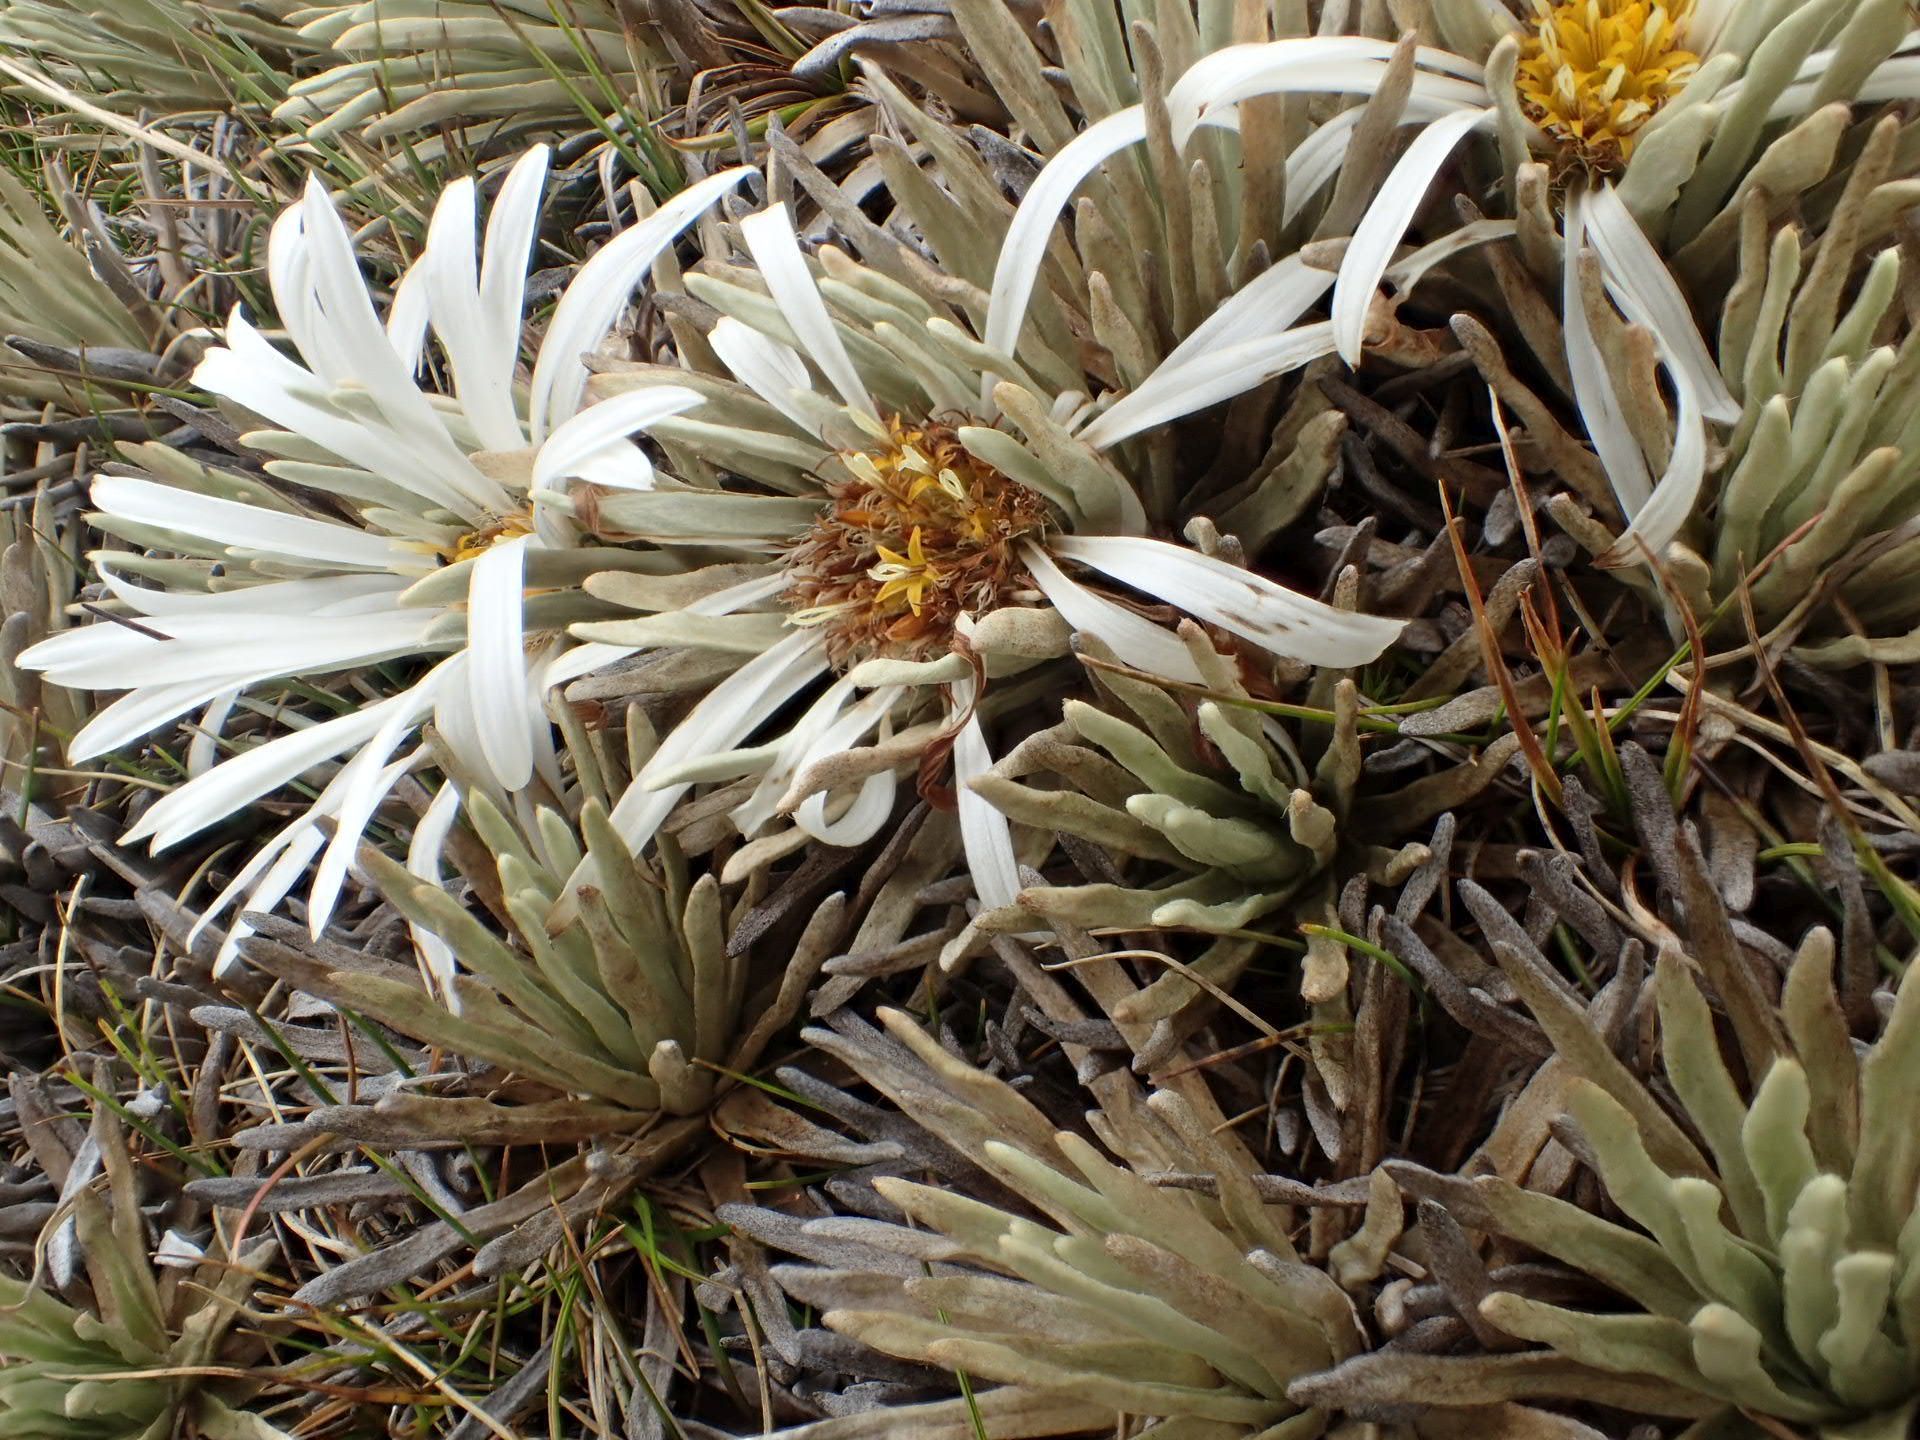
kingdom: Plantae
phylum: Tracheophyta
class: Magnoliopsida
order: Asterales
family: Asteraceae
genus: Celmisia
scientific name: Celmisia sessiliflora
